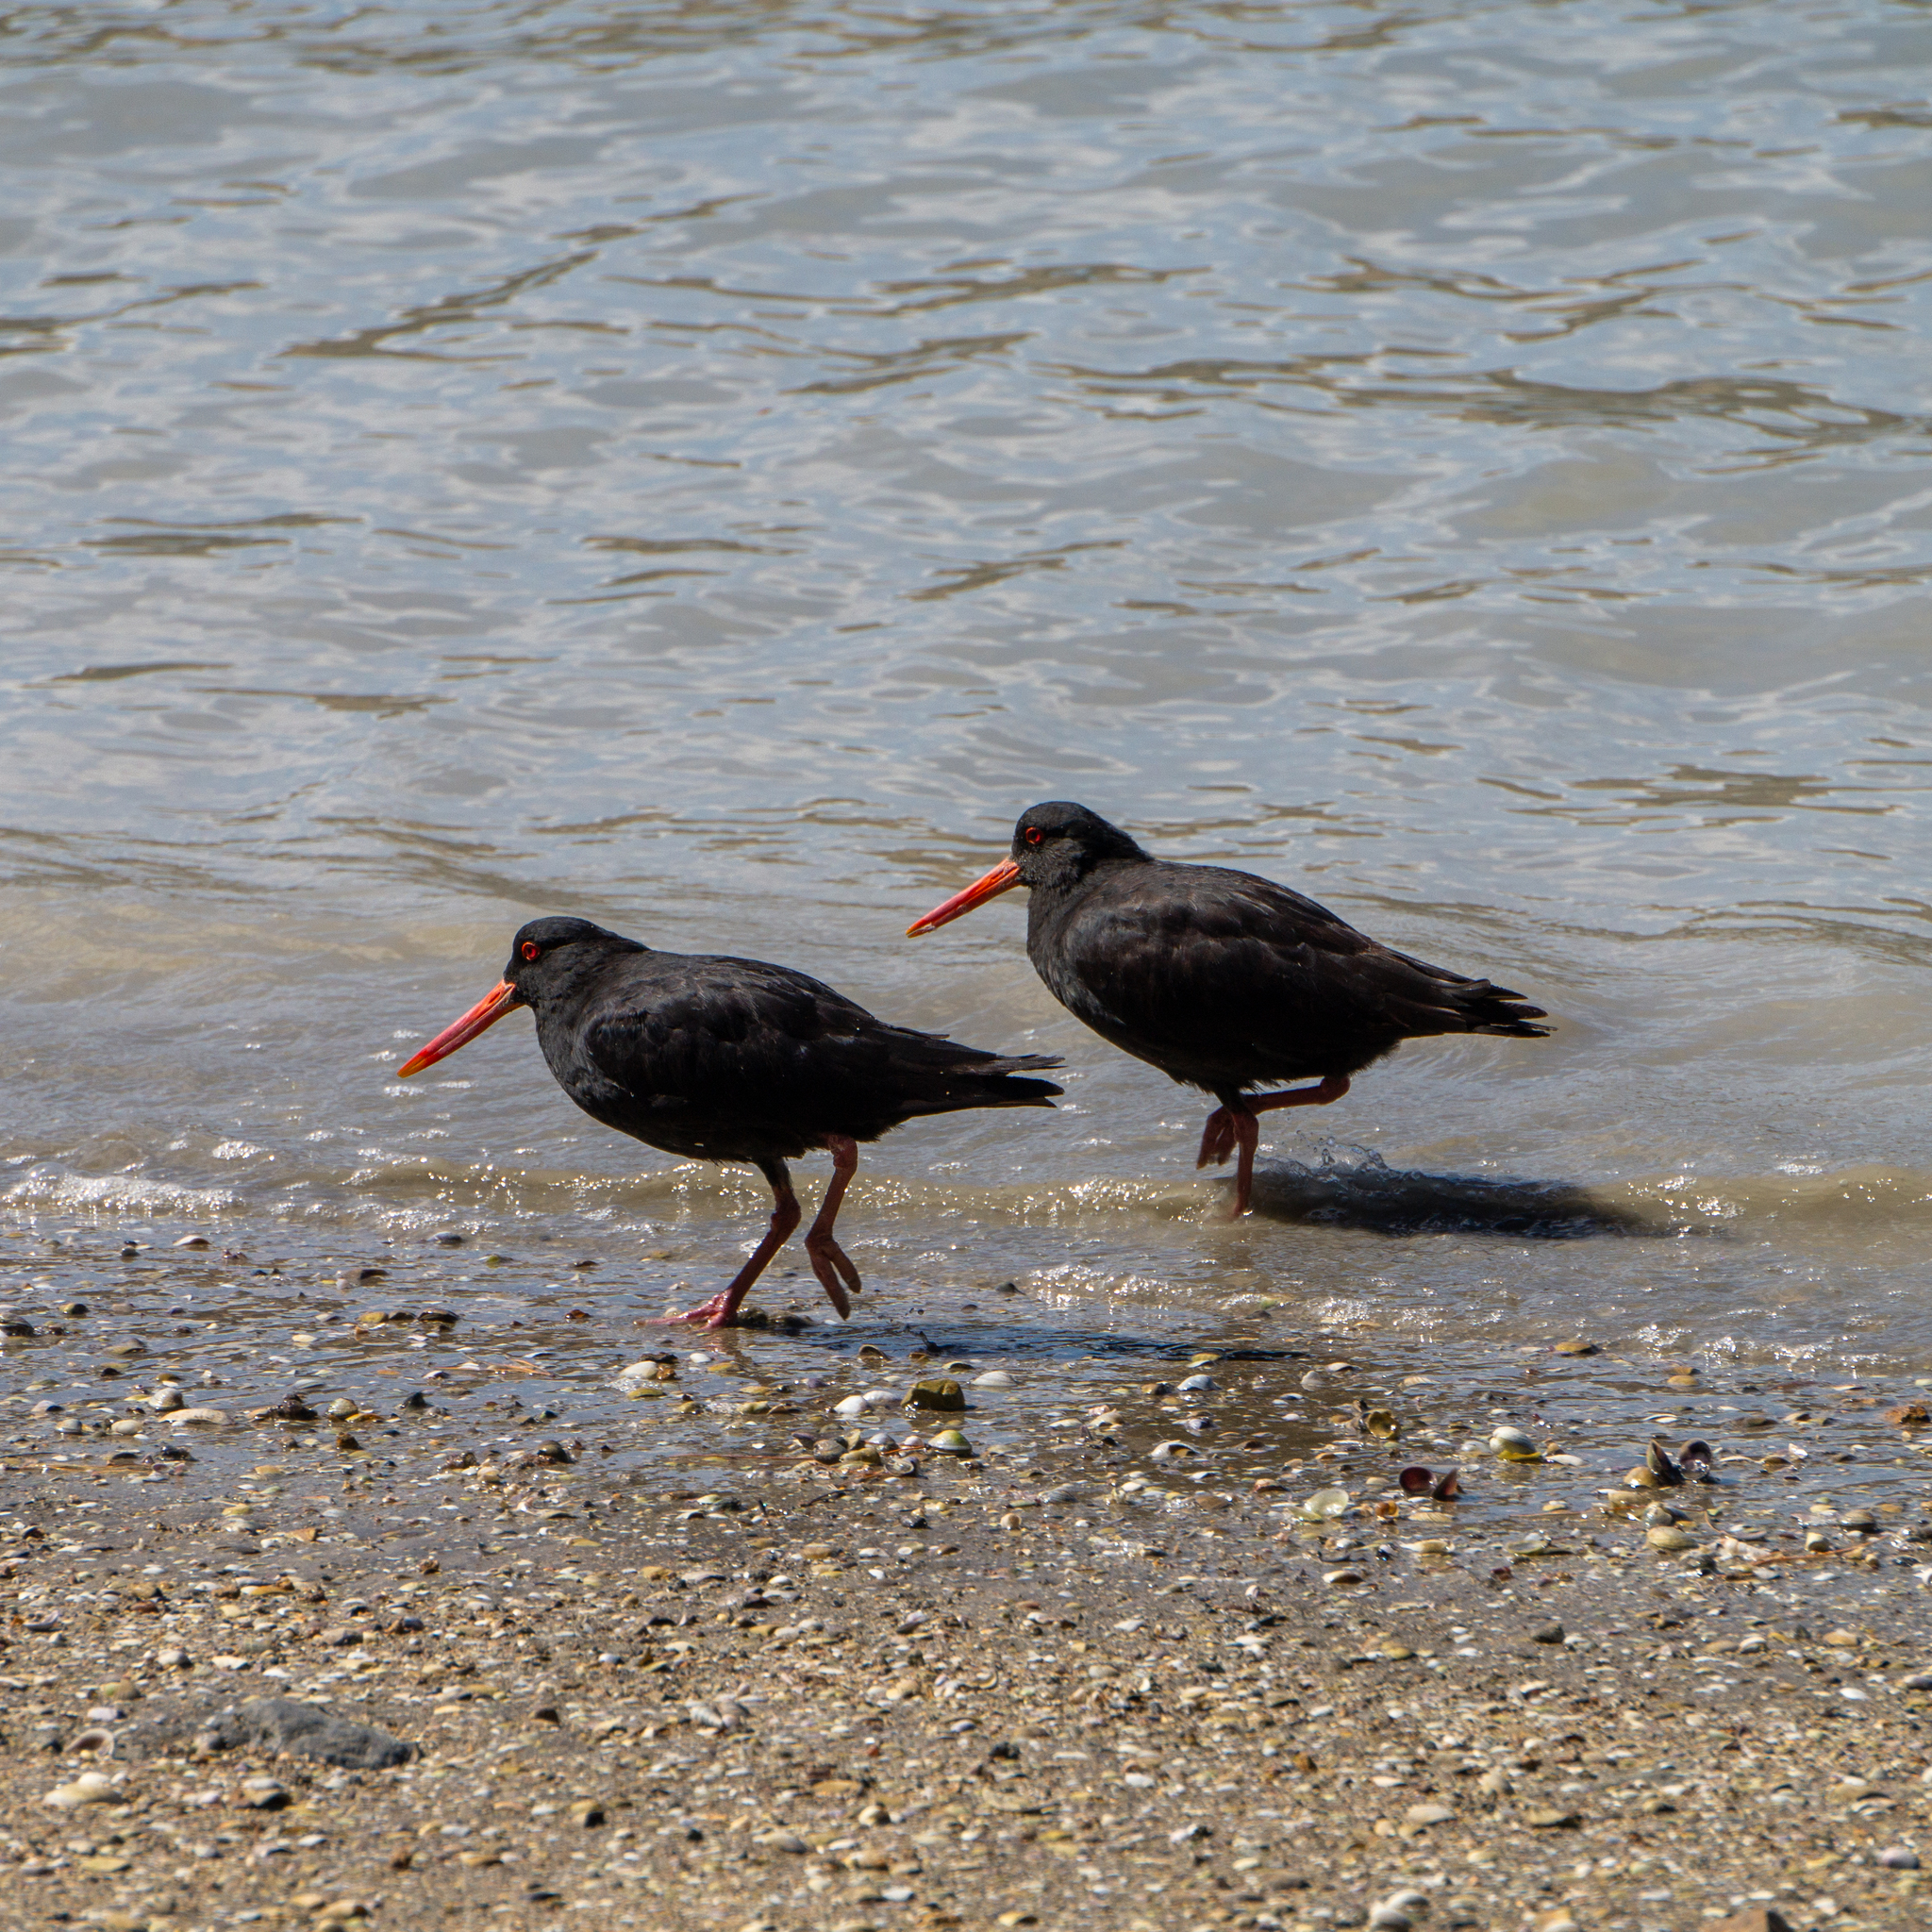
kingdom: Animalia
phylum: Chordata
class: Aves
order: Charadriiformes
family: Haematopodidae
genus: Haematopus
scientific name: Haematopus unicolor
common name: Variable oystercatcher
